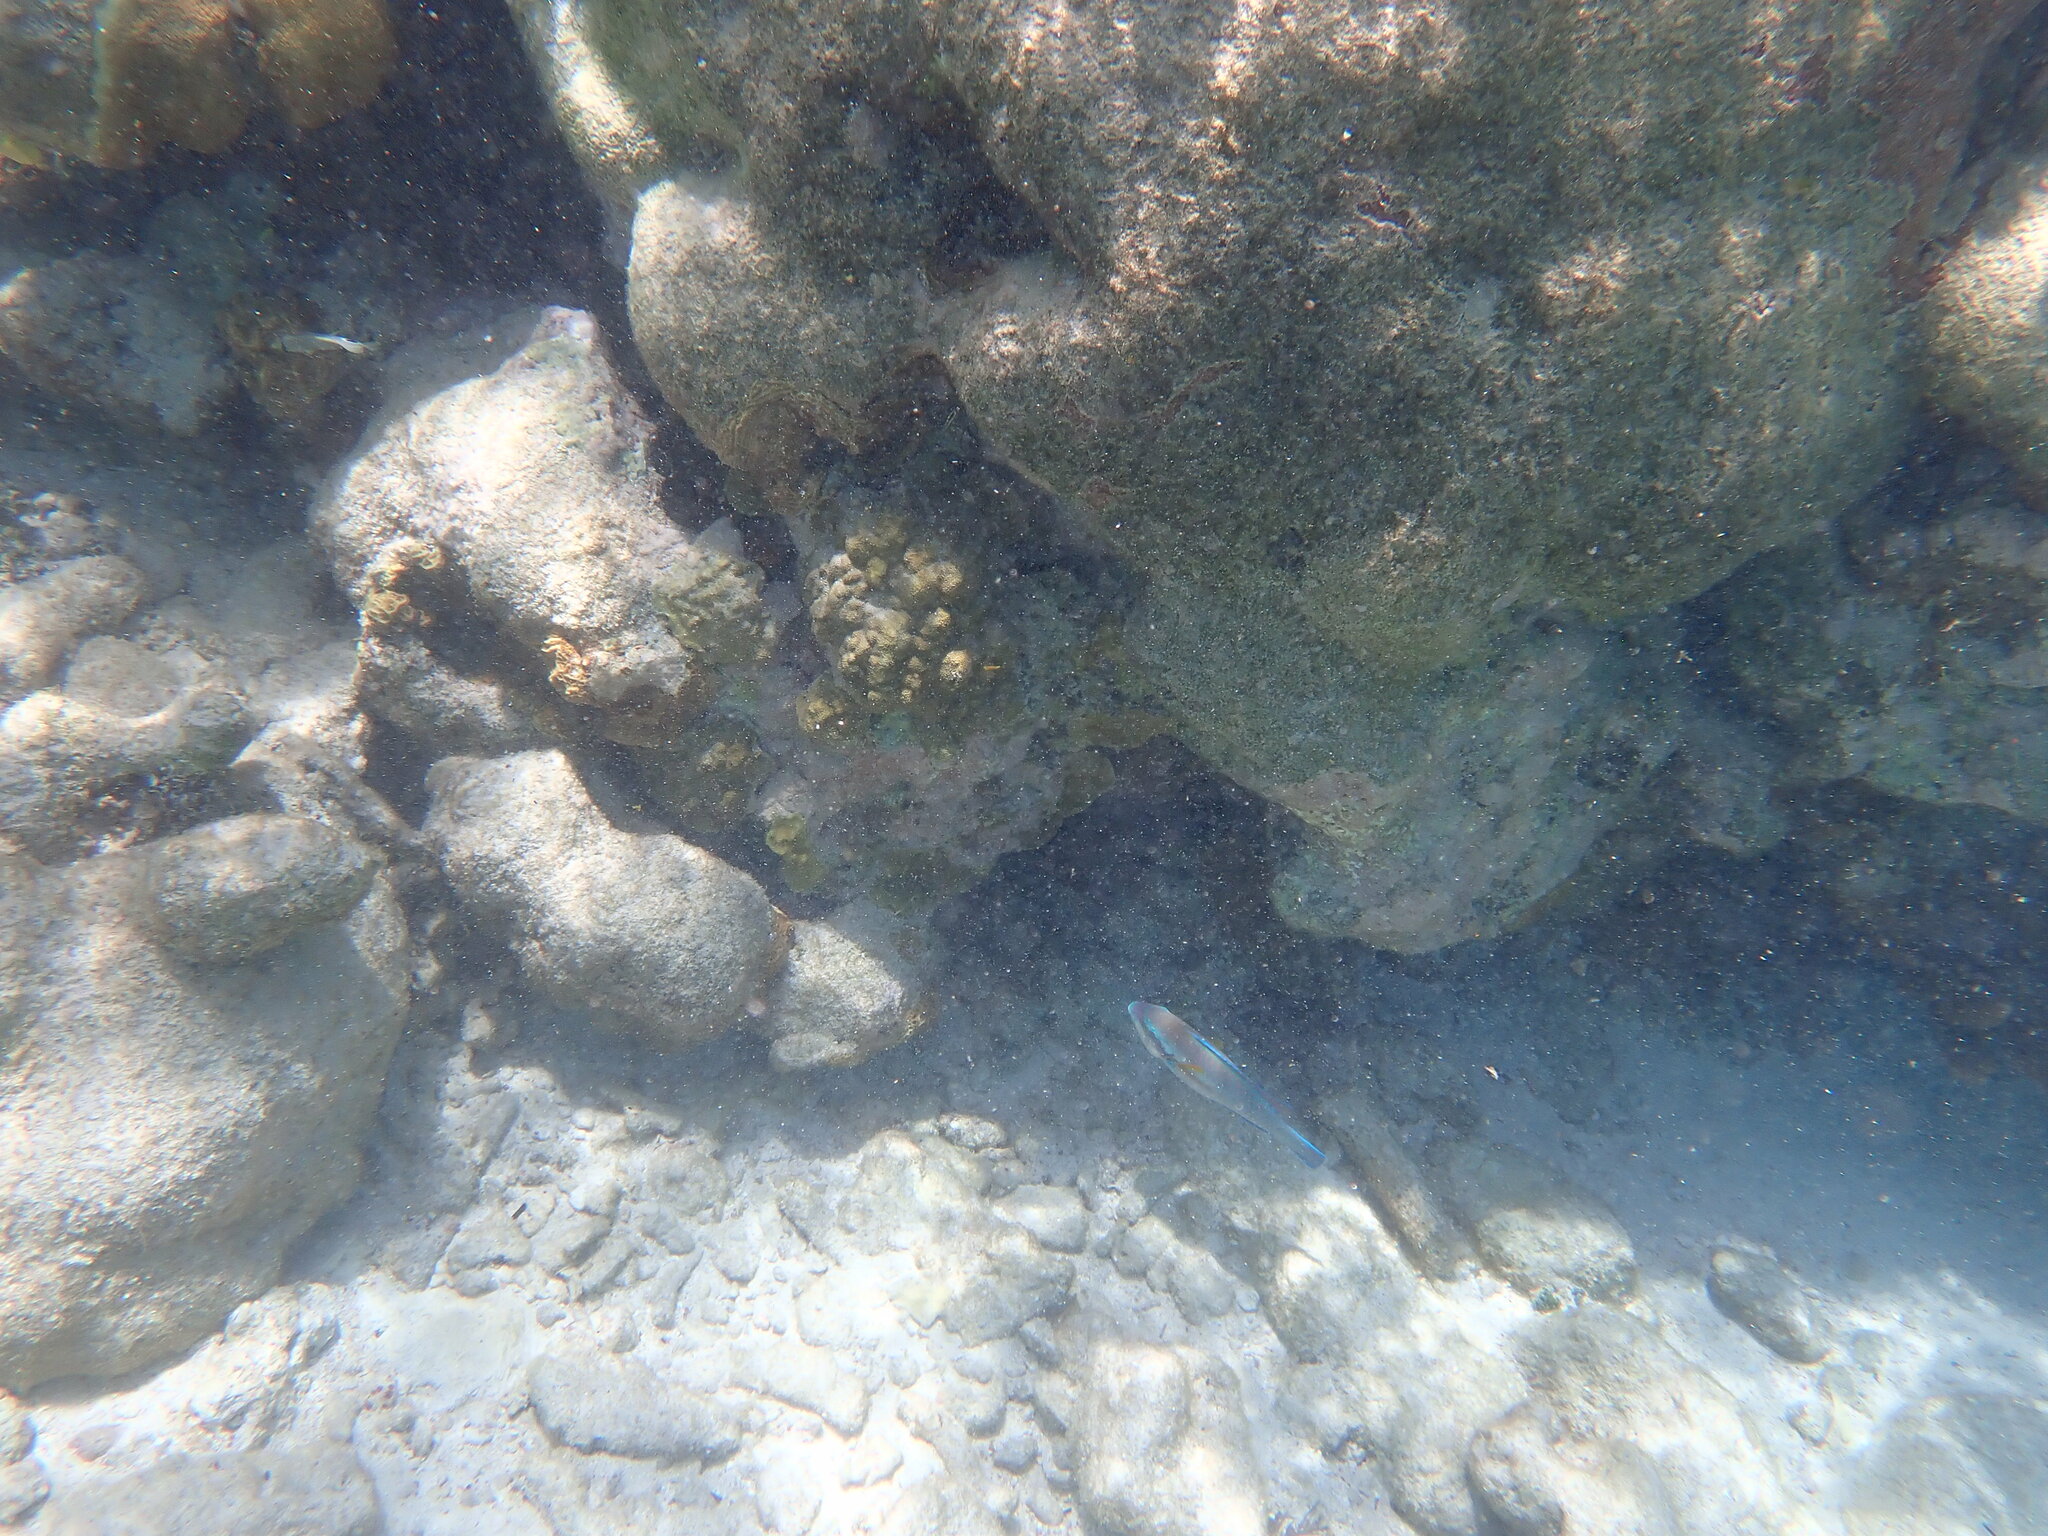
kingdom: Animalia
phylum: Chordata
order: Perciformes
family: Scaridae
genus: Scarus
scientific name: Scarus iseri
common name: Striped parrotfish
